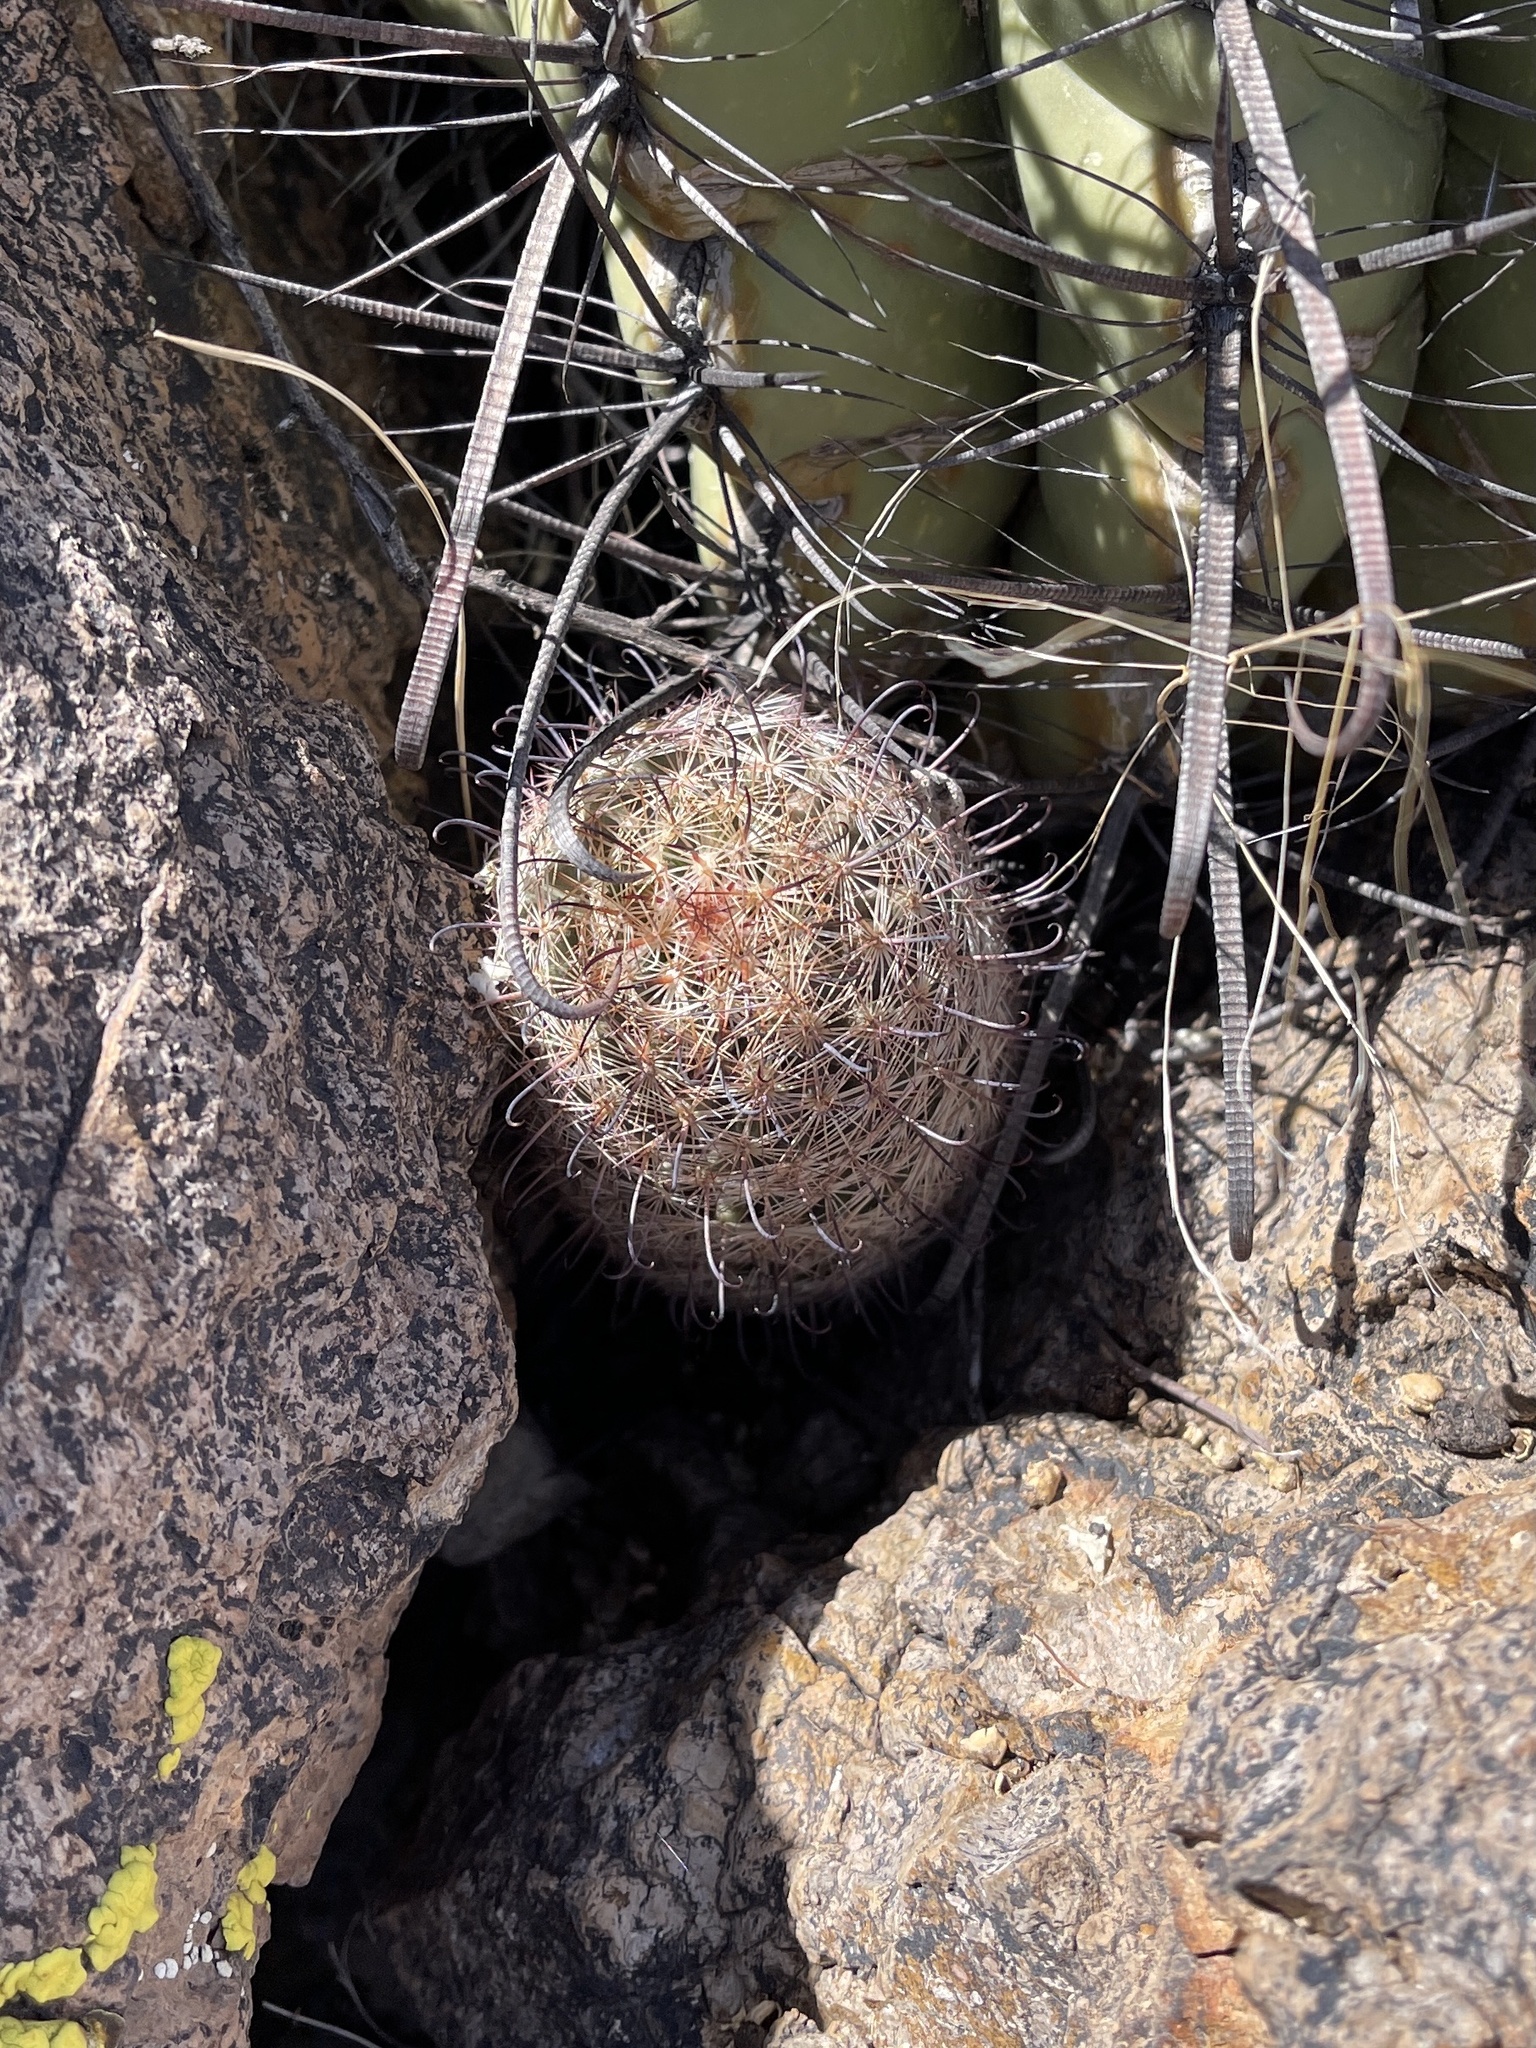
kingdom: Plantae
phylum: Tracheophyta
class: Magnoliopsida
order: Caryophyllales
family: Cactaceae
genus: Cochemiea
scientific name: Cochemiea grahamii
